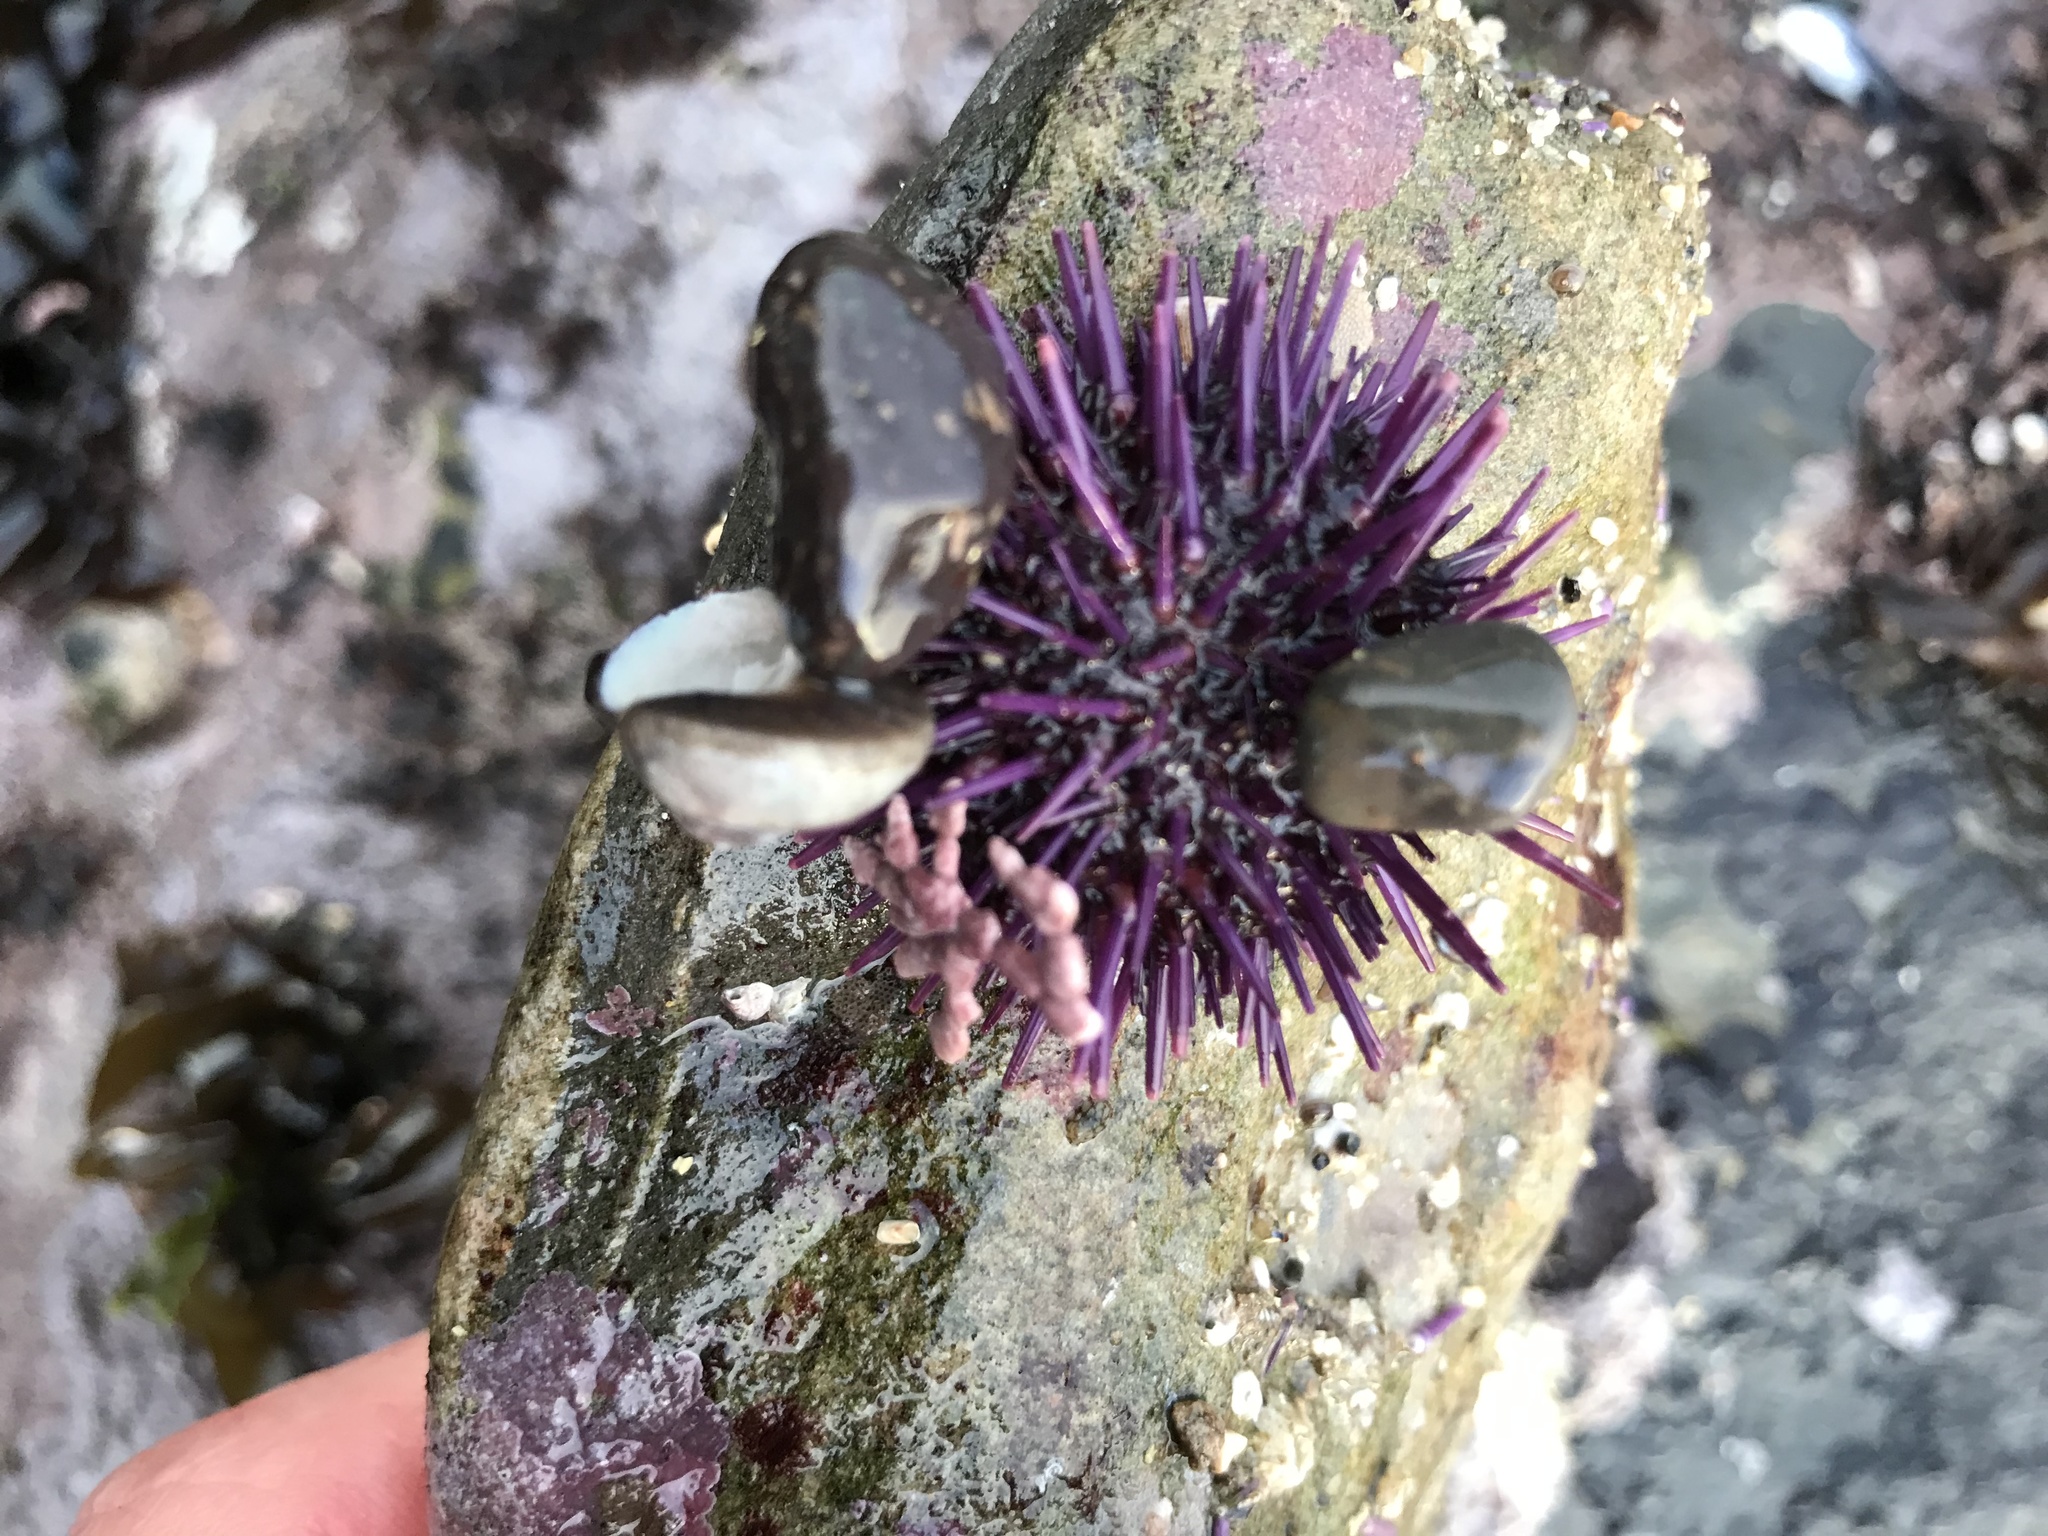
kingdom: Animalia
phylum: Echinodermata
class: Echinoidea
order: Camarodonta
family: Strongylocentrotidae
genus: Strongylocentrotus
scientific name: Strongylocentrotus purpuratus
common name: Purple sea urchin
